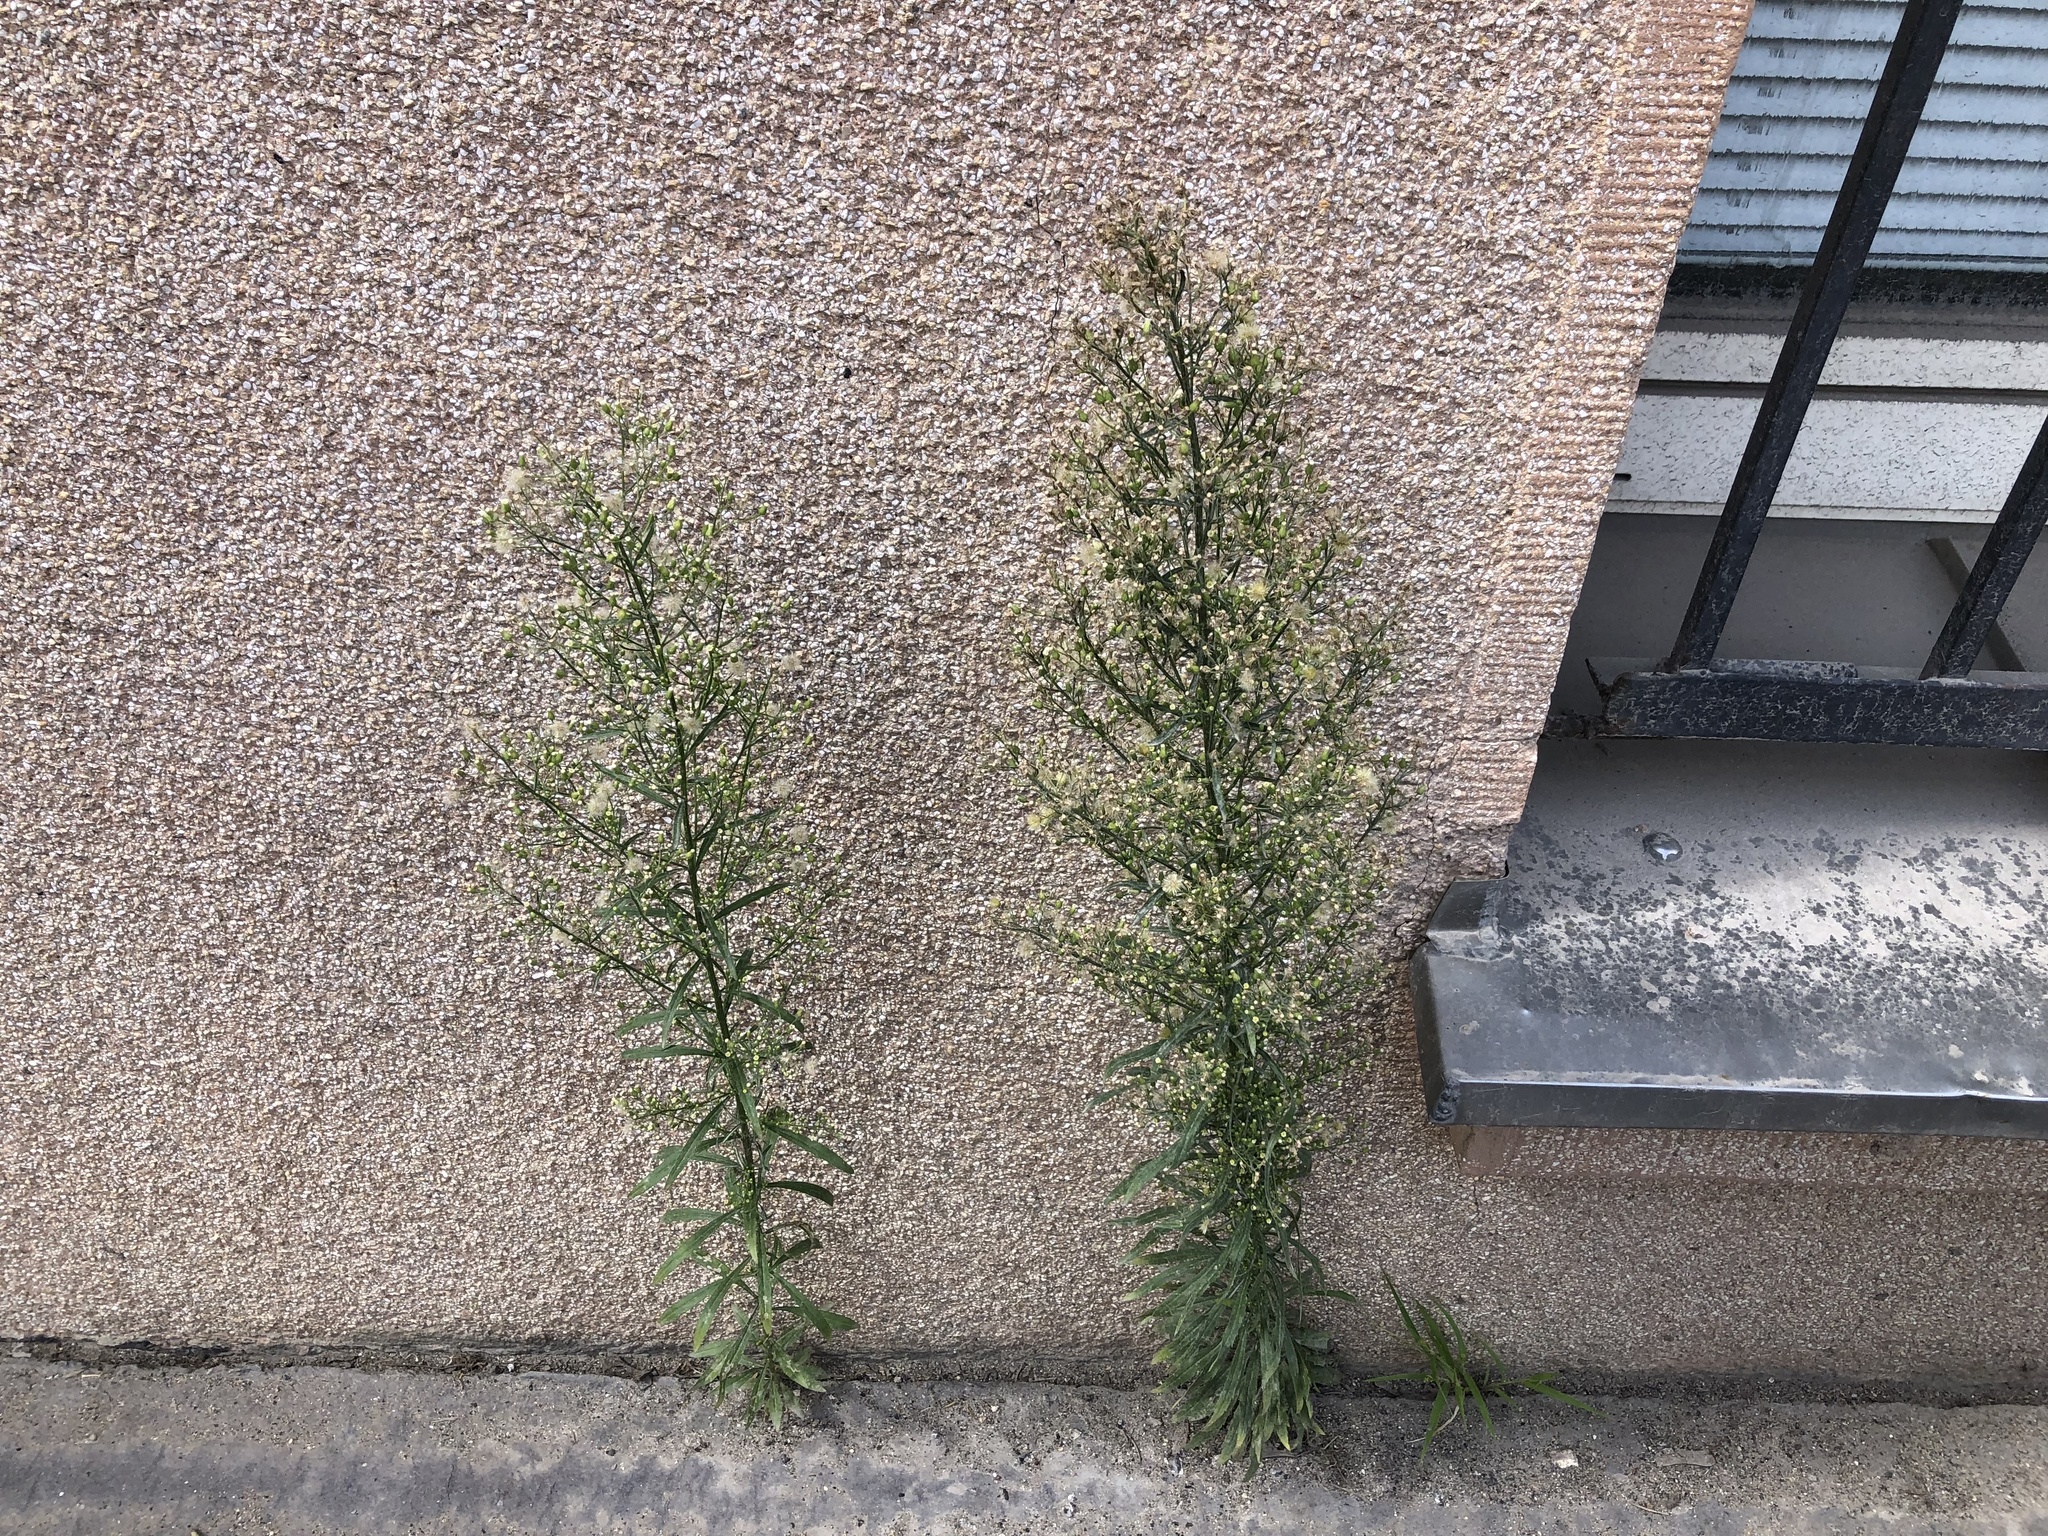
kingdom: Plantae
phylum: Tracheophyta
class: Magnoliopsida
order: Asterales
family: Asteraceae
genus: Erigeron
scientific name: Erigeron canadensis
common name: Canadian fleabane
